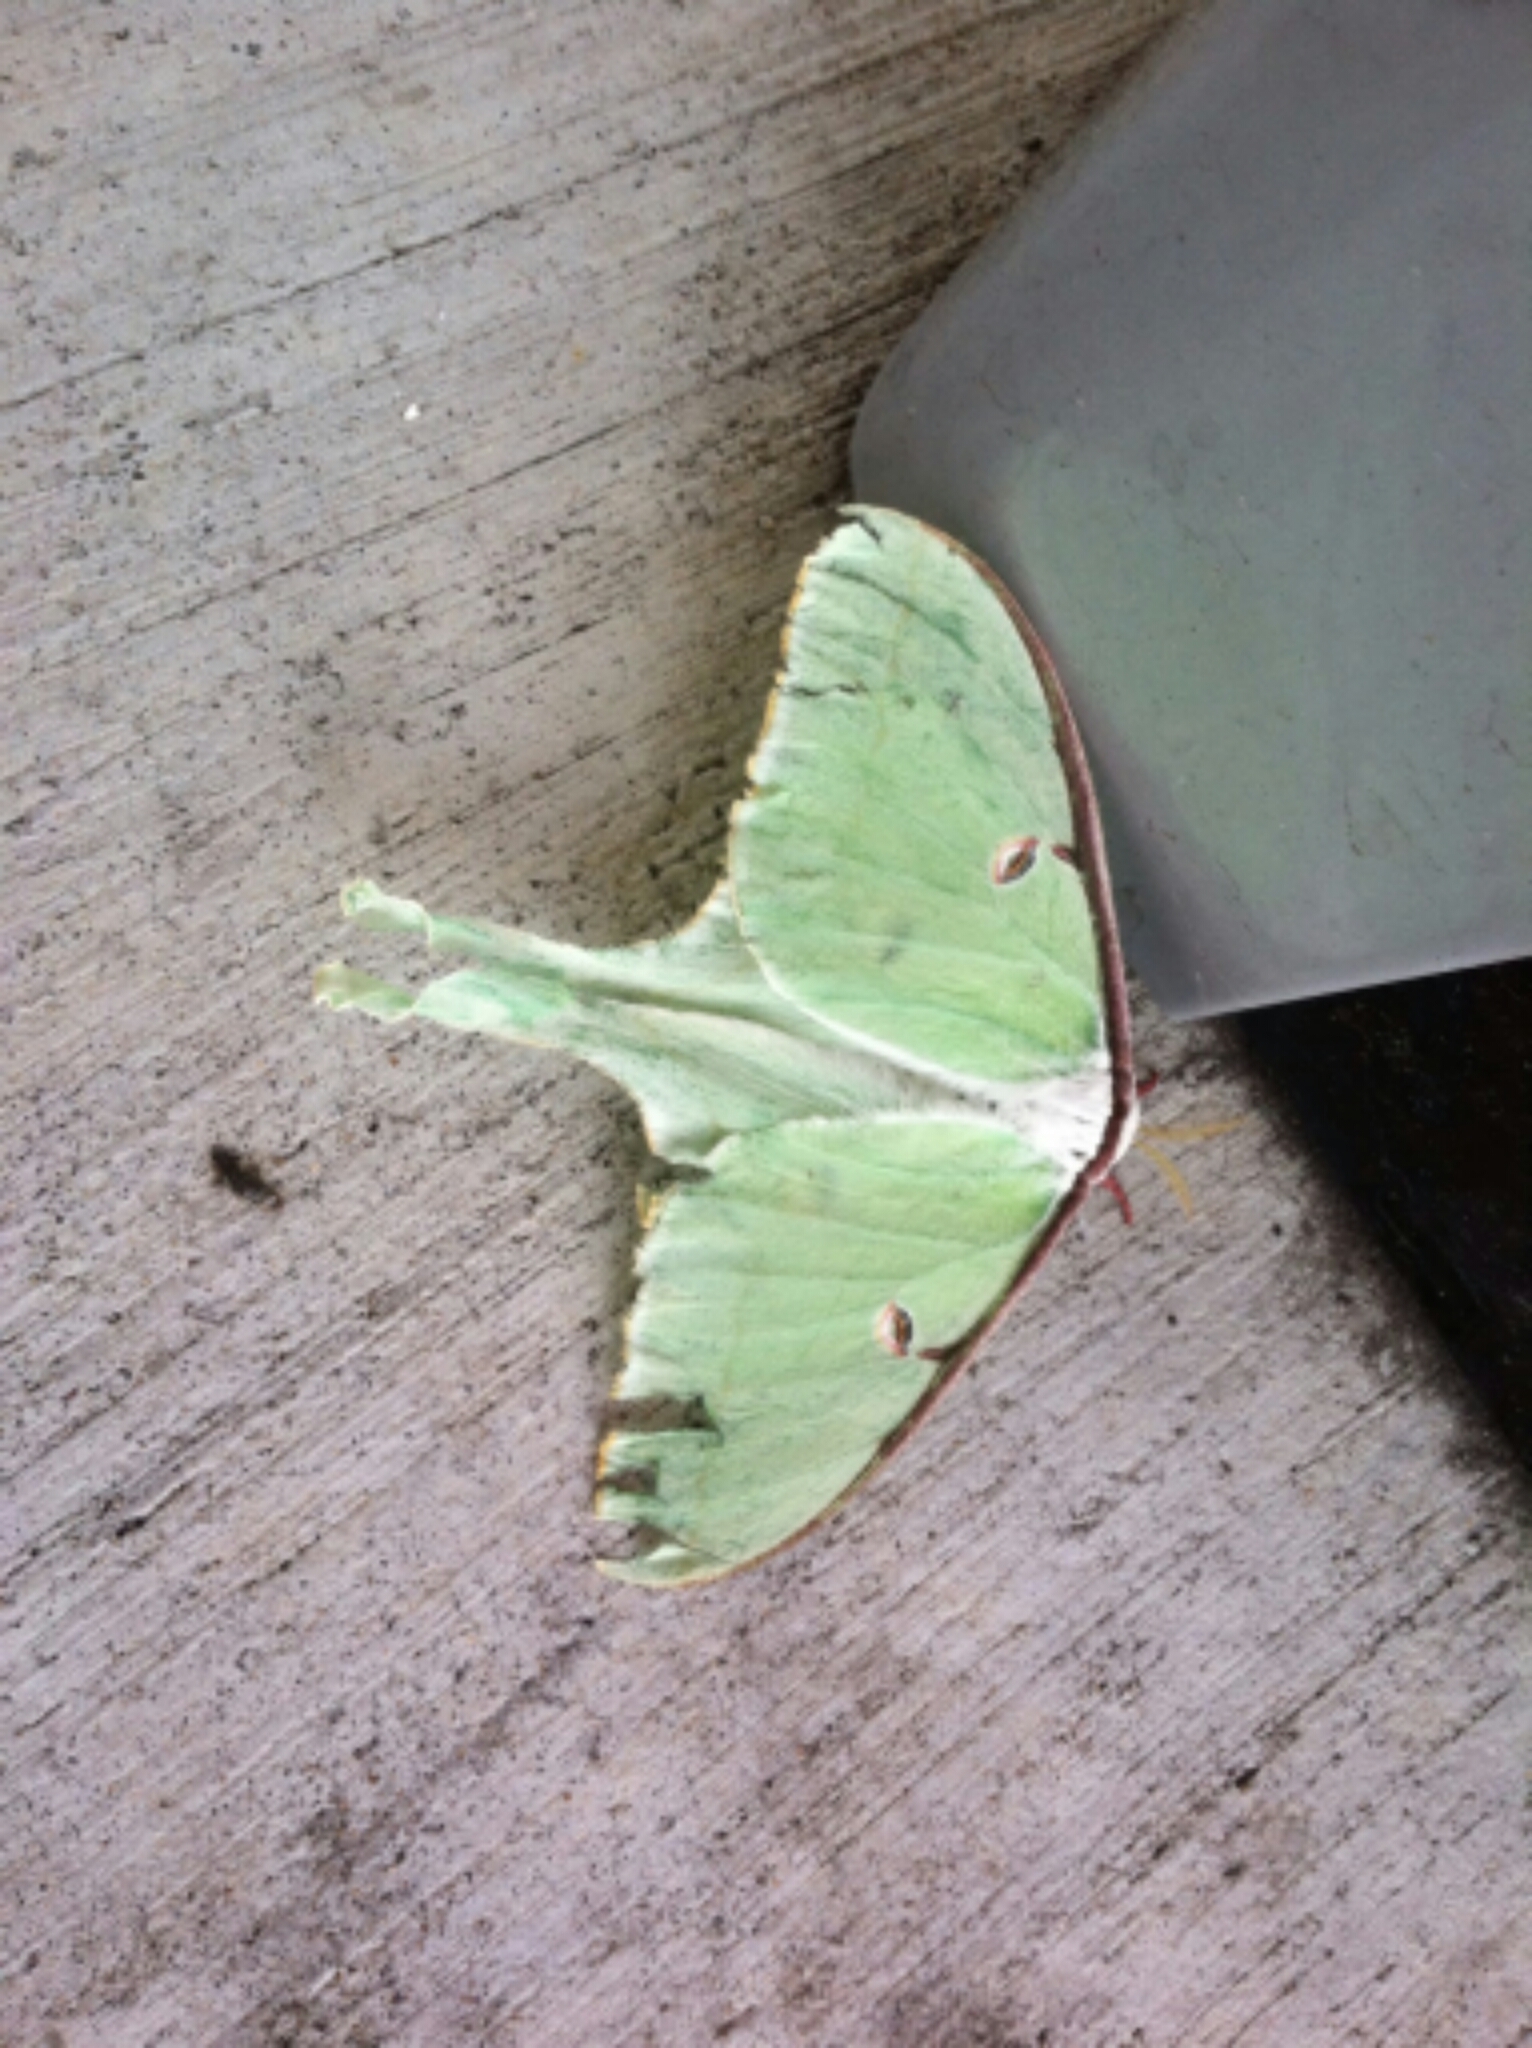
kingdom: Animalia
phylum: Arthropoda
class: Insecta
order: Lepidoptera
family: Saturniidae
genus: Actias
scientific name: Actias luna
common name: Luna moth
